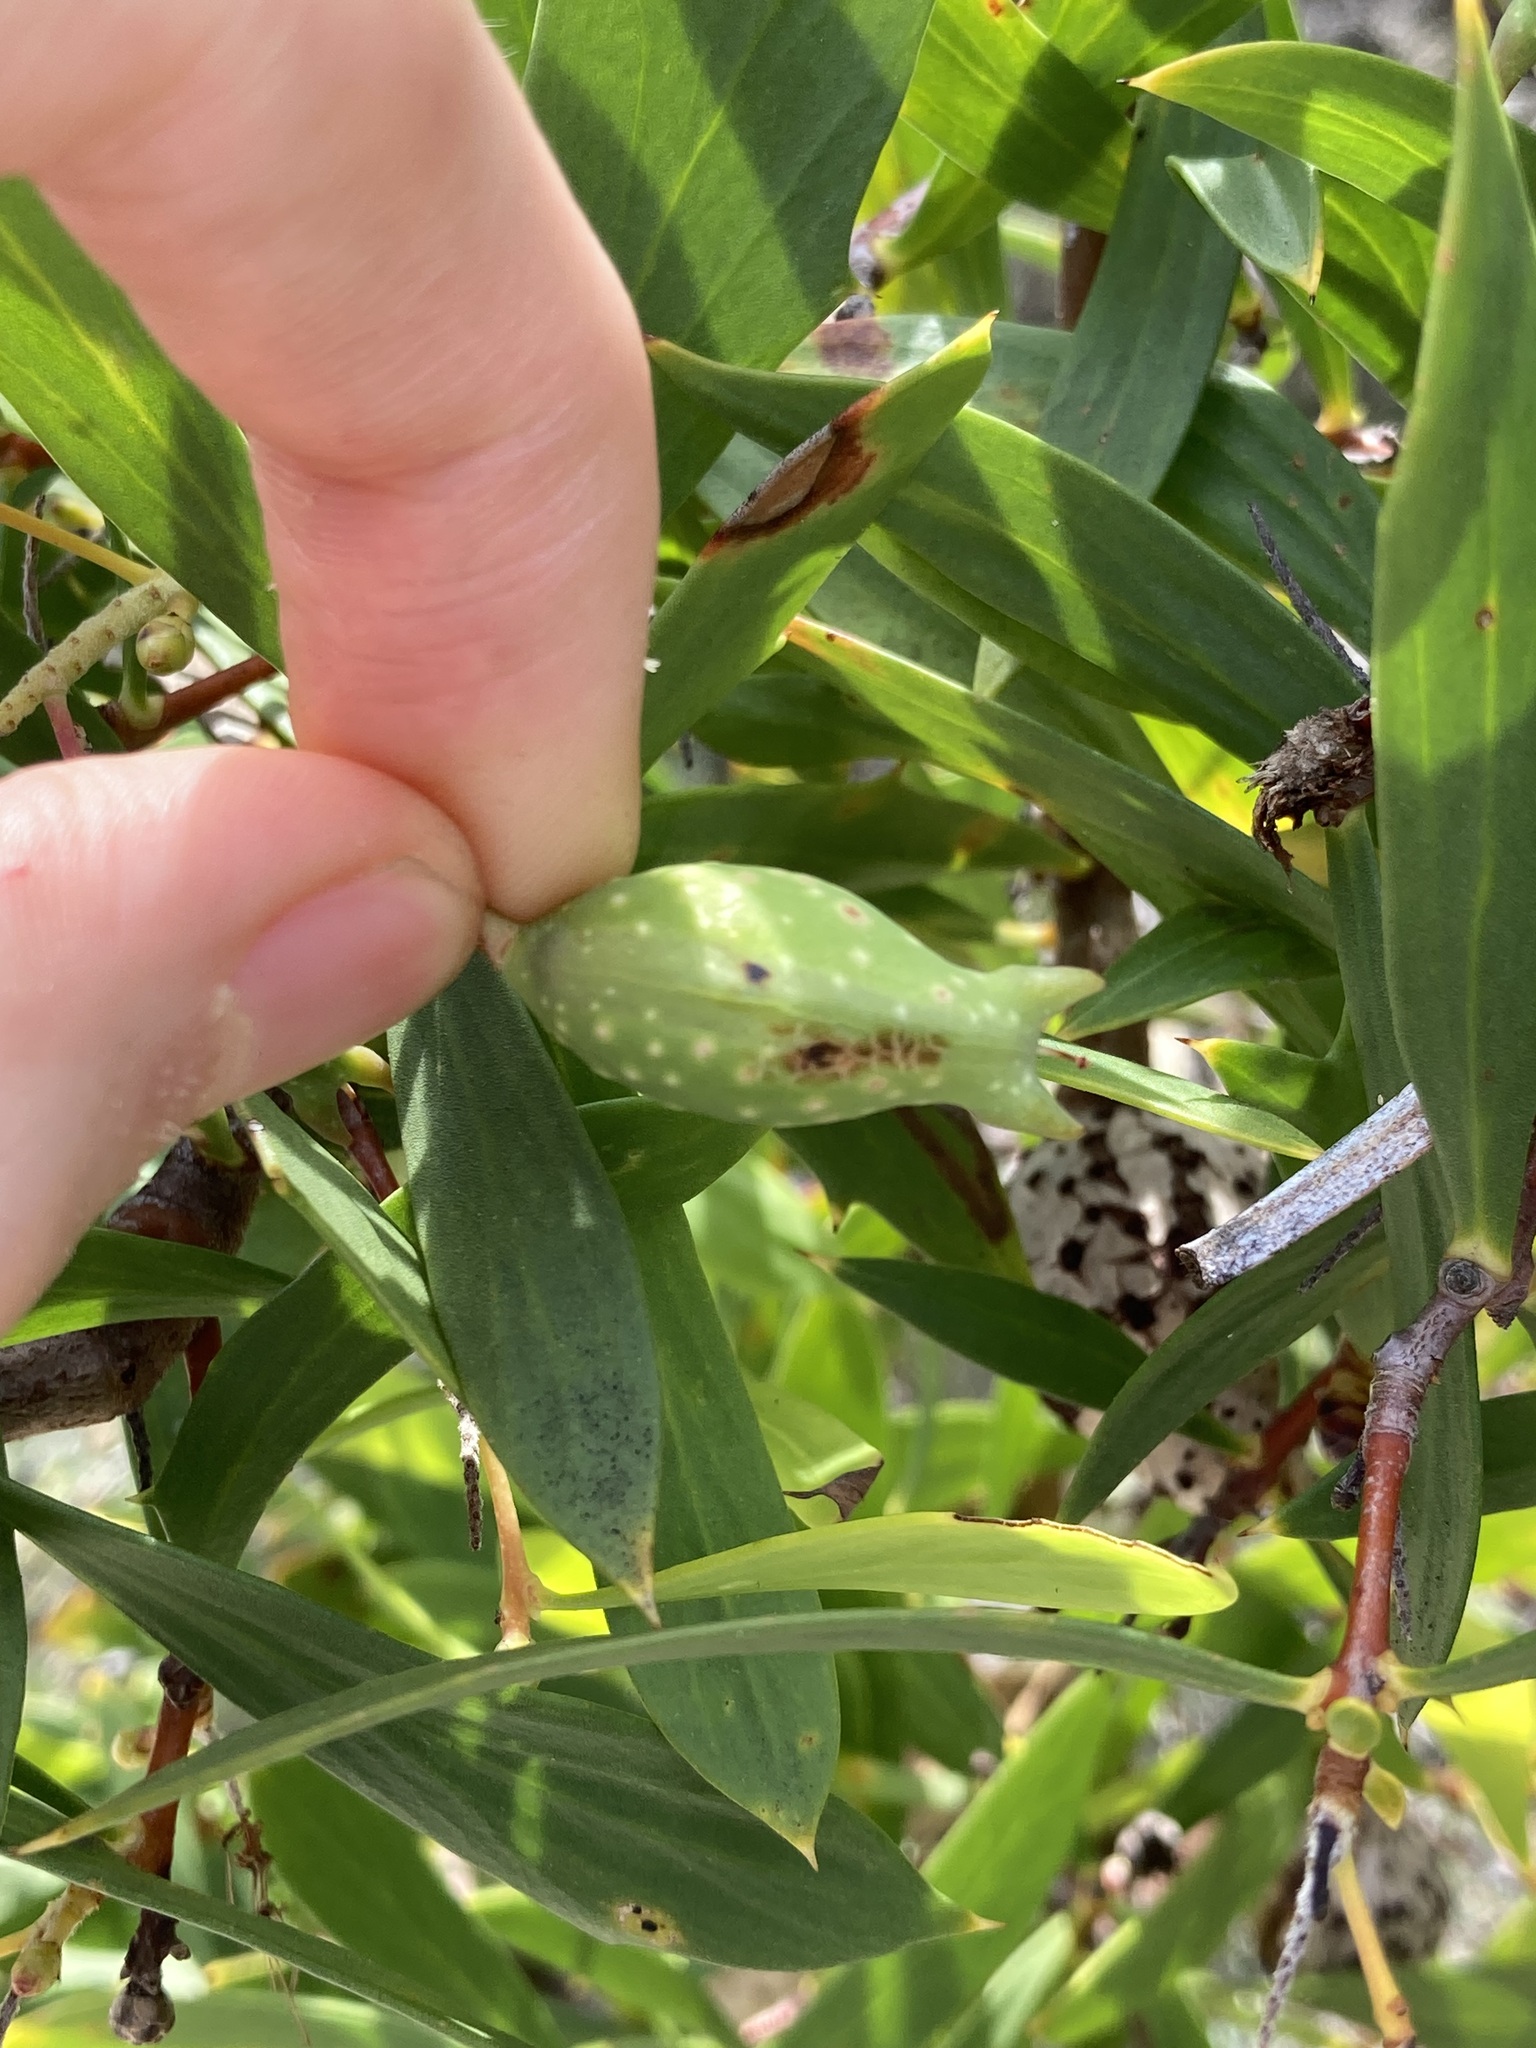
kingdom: Plantae
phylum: Tracheophyta
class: Magnoliopsida
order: Proteales
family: Proteaceae
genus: Hakea
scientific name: Hakea nitida
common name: Frog hakea
